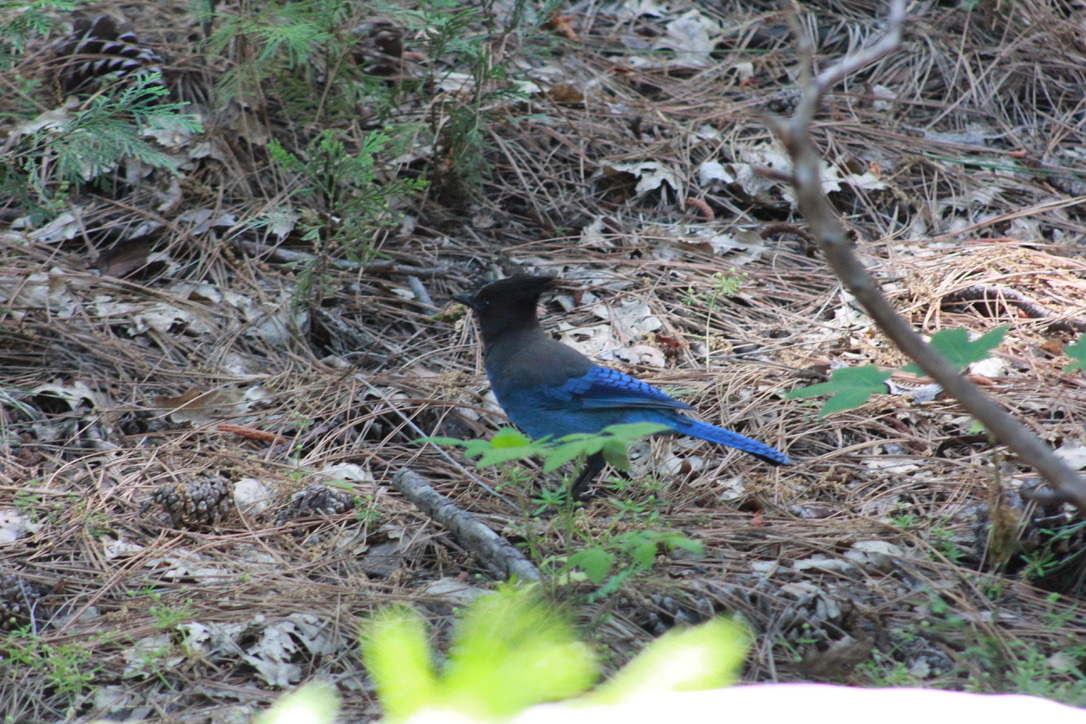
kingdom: Animalia
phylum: Chordata
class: Aves
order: Passeriformes
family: Corvidae
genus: Cyanocitta
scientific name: Cyanocitta stelleri
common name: Steller's jay
